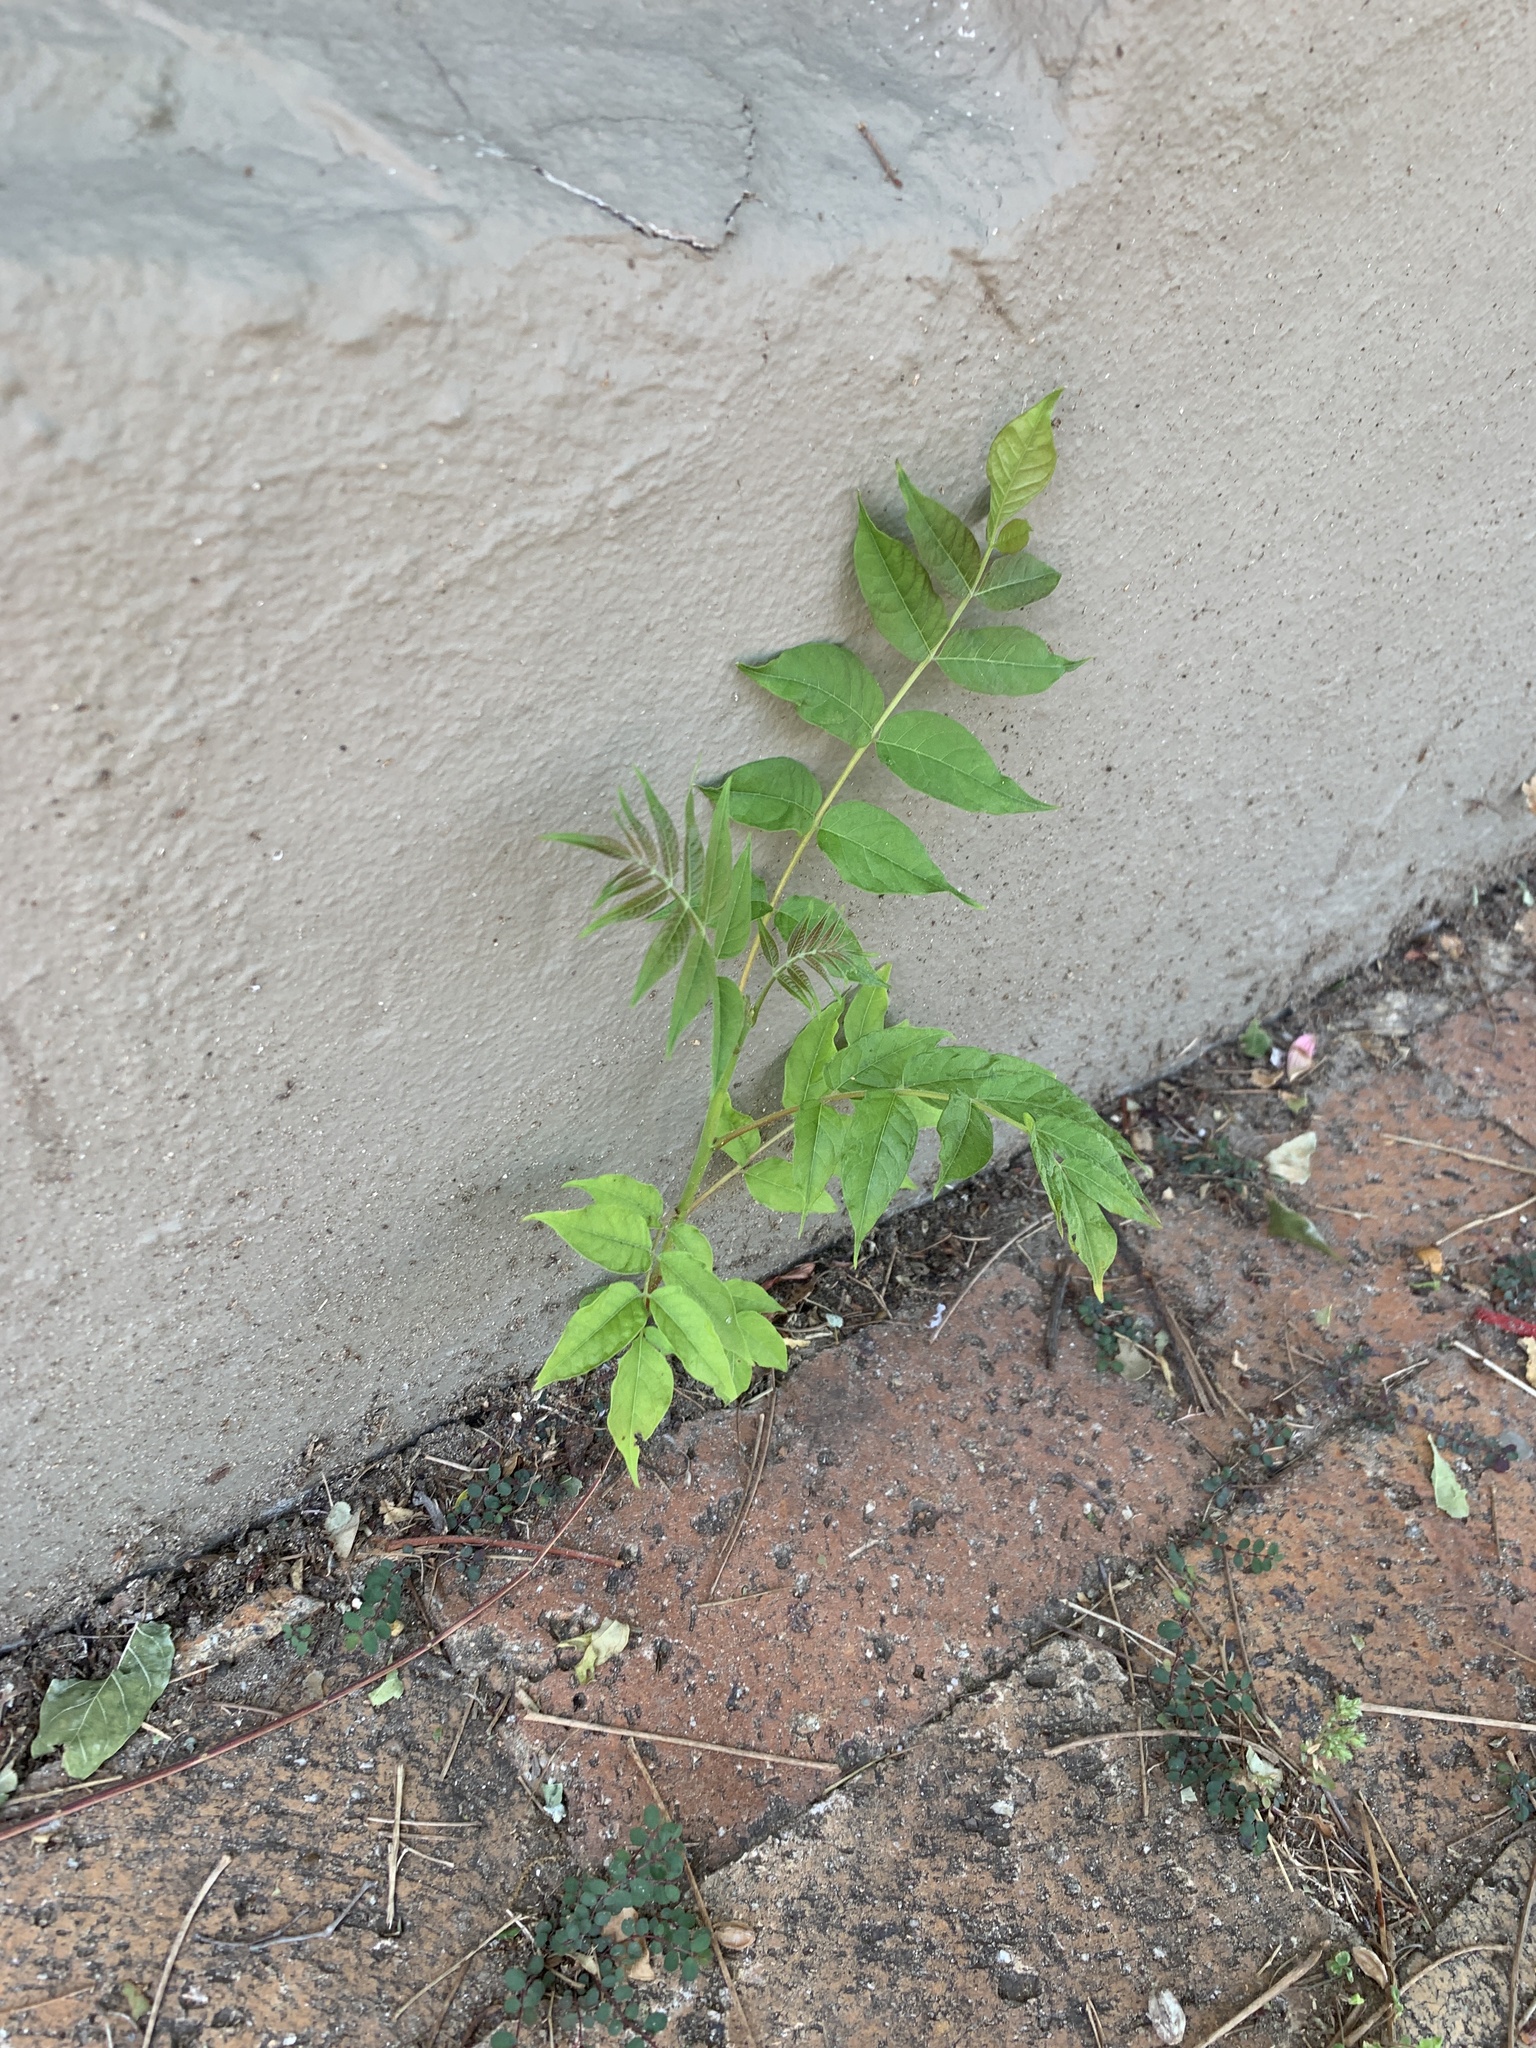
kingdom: Plantae
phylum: Tracheophyta
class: Magnoliopsida
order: Sapindales
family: Simaroubaceae
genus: Ailanthus
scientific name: Ailanthus altissima
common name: Tree-of-heaven
